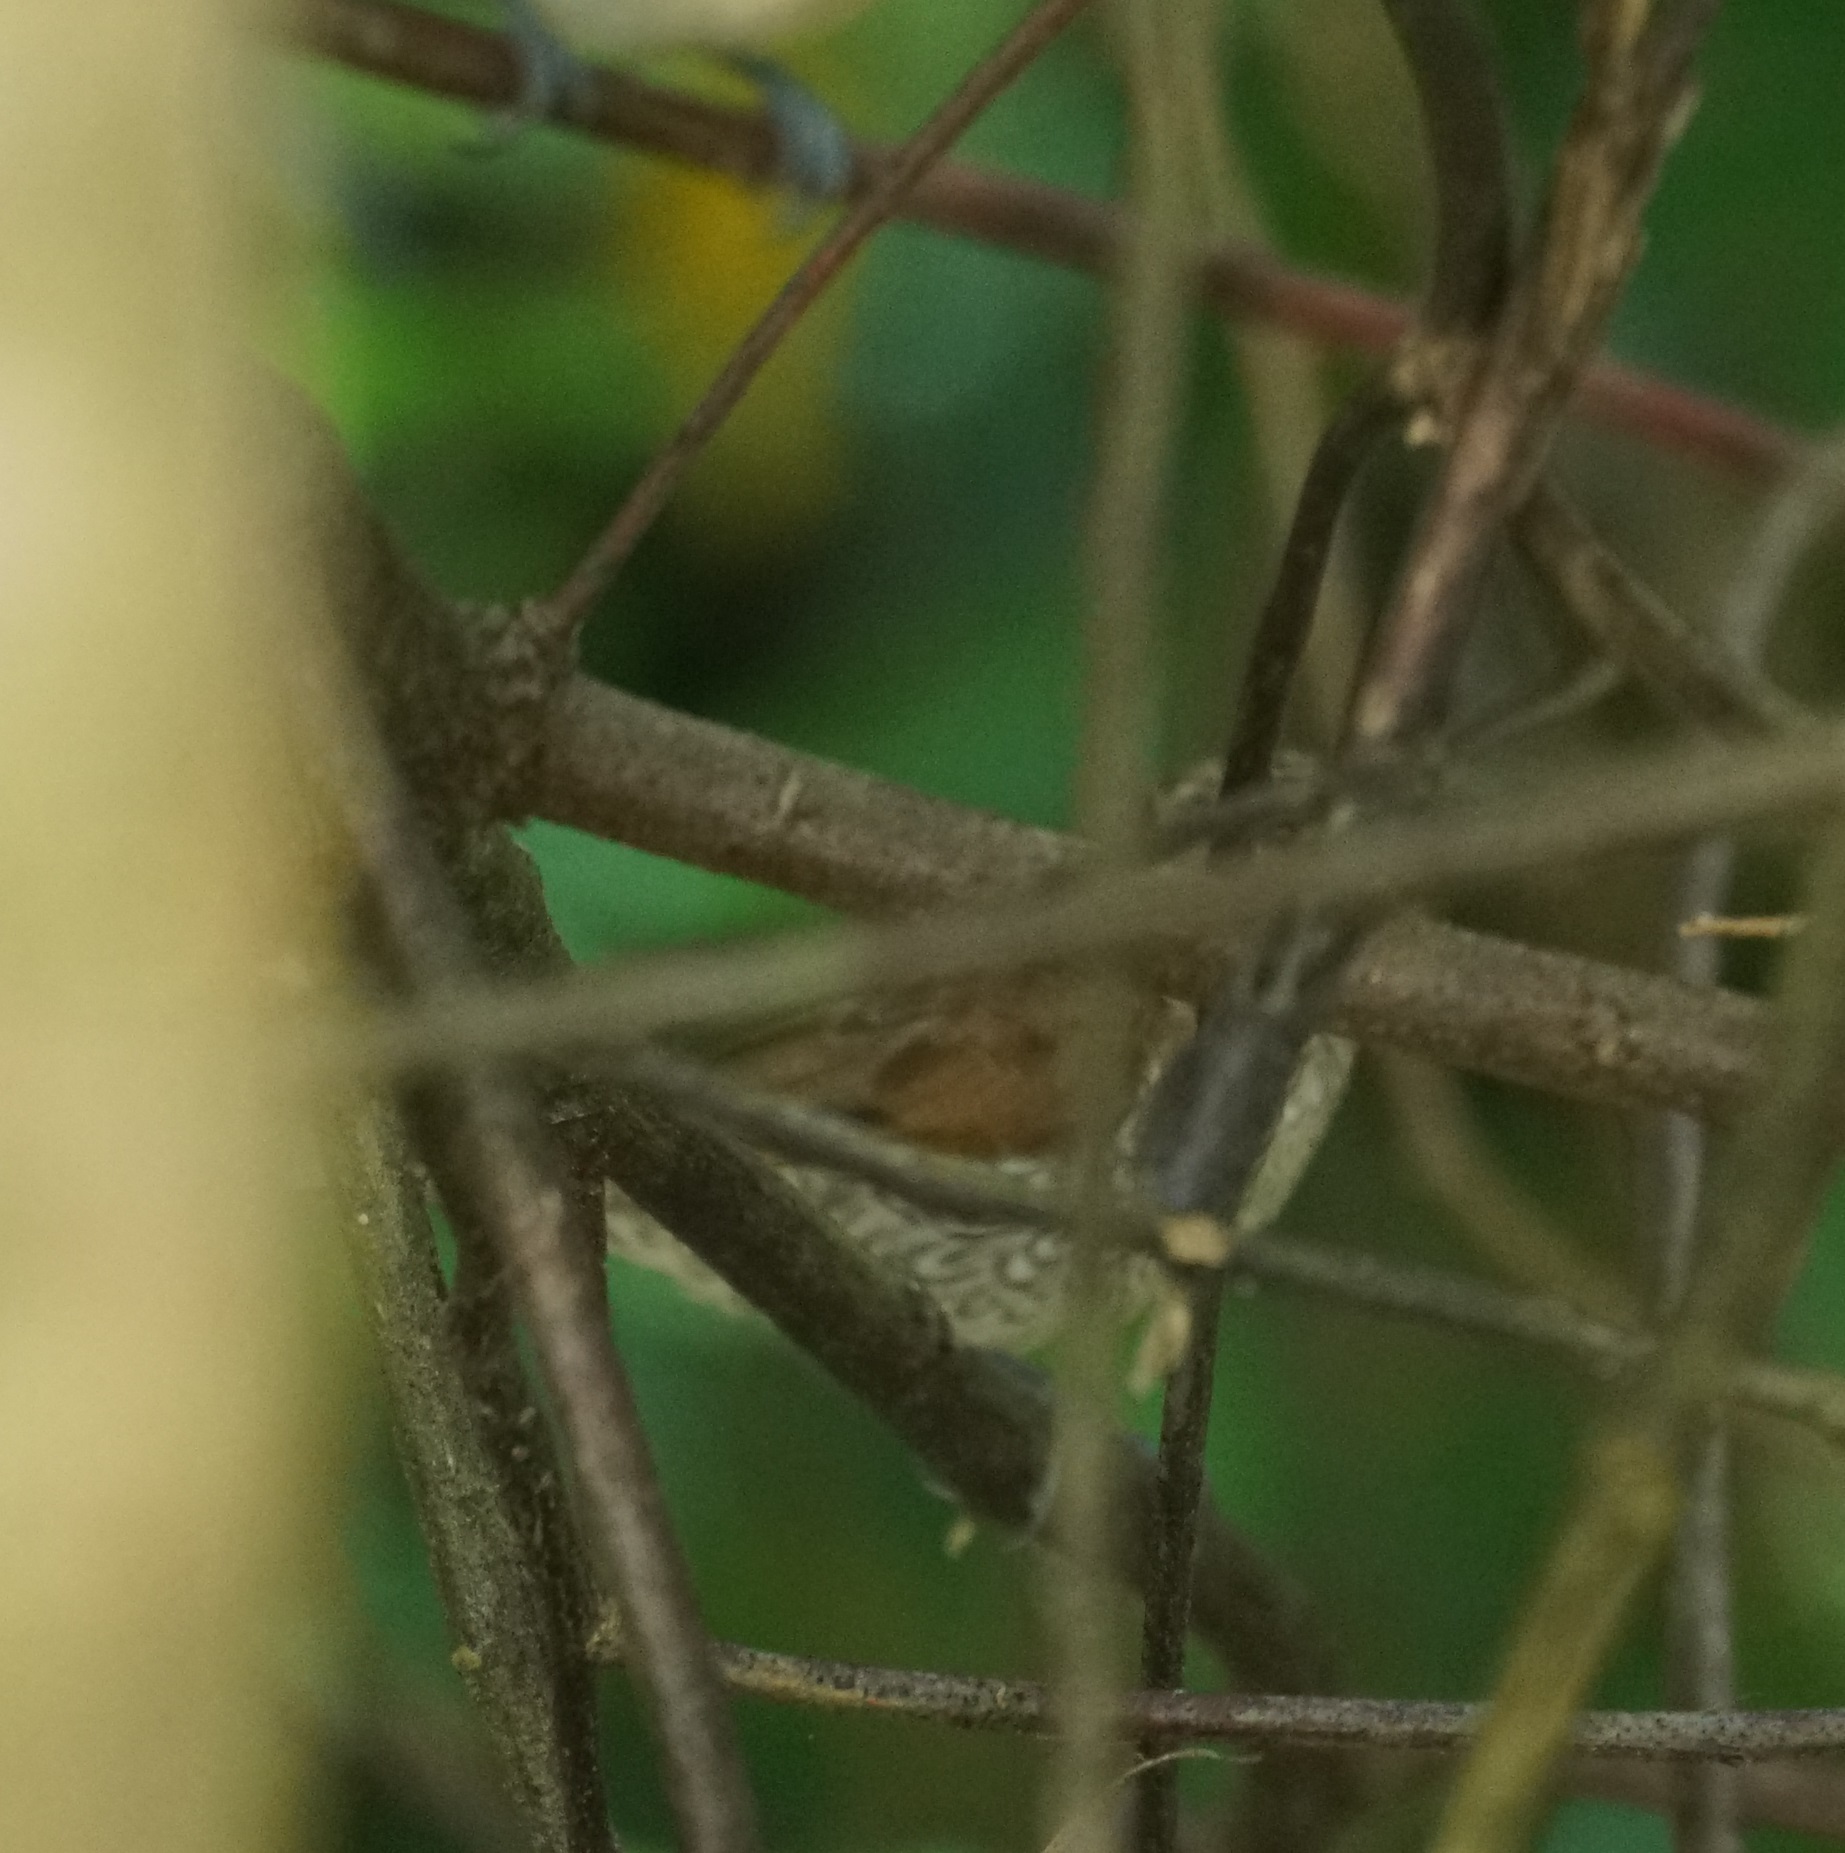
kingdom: Animalia
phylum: Chordata
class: Aves
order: Passeriformes
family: Estrildidae
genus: Lonchura
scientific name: Lonchura punctulata
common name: Scaly-breasted munia
